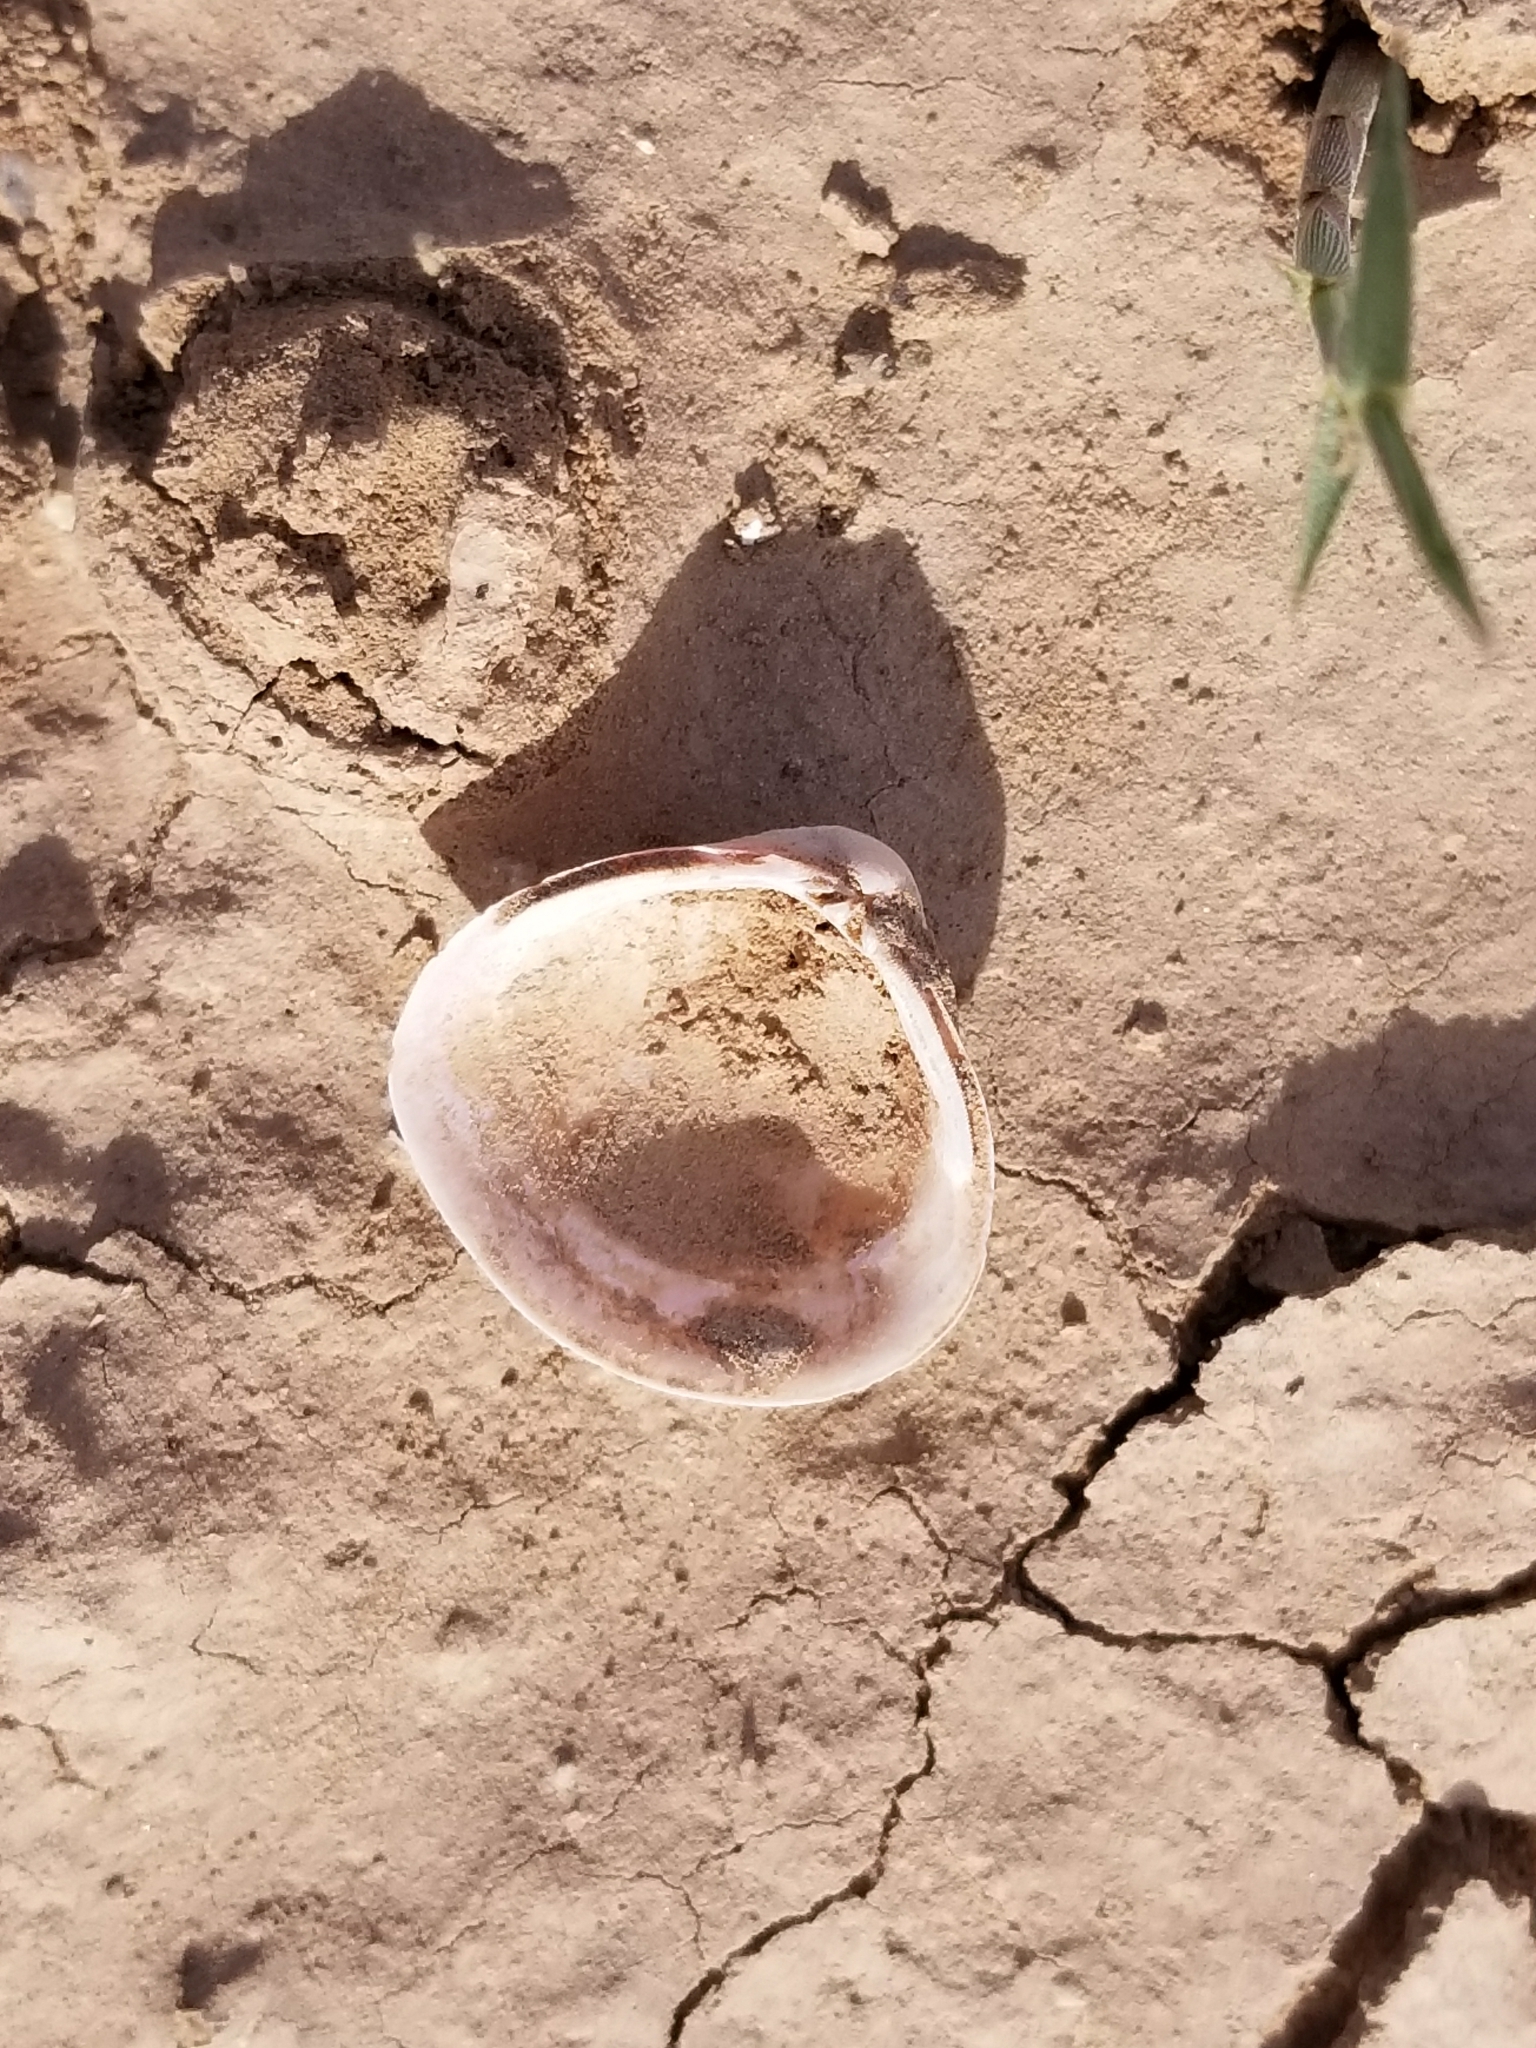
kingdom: Animalia
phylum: Mollusca
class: Bivalvia
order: Venerida
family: Cyrenidae
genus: Corbicula
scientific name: Corbicula fluminea
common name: Asian clam
